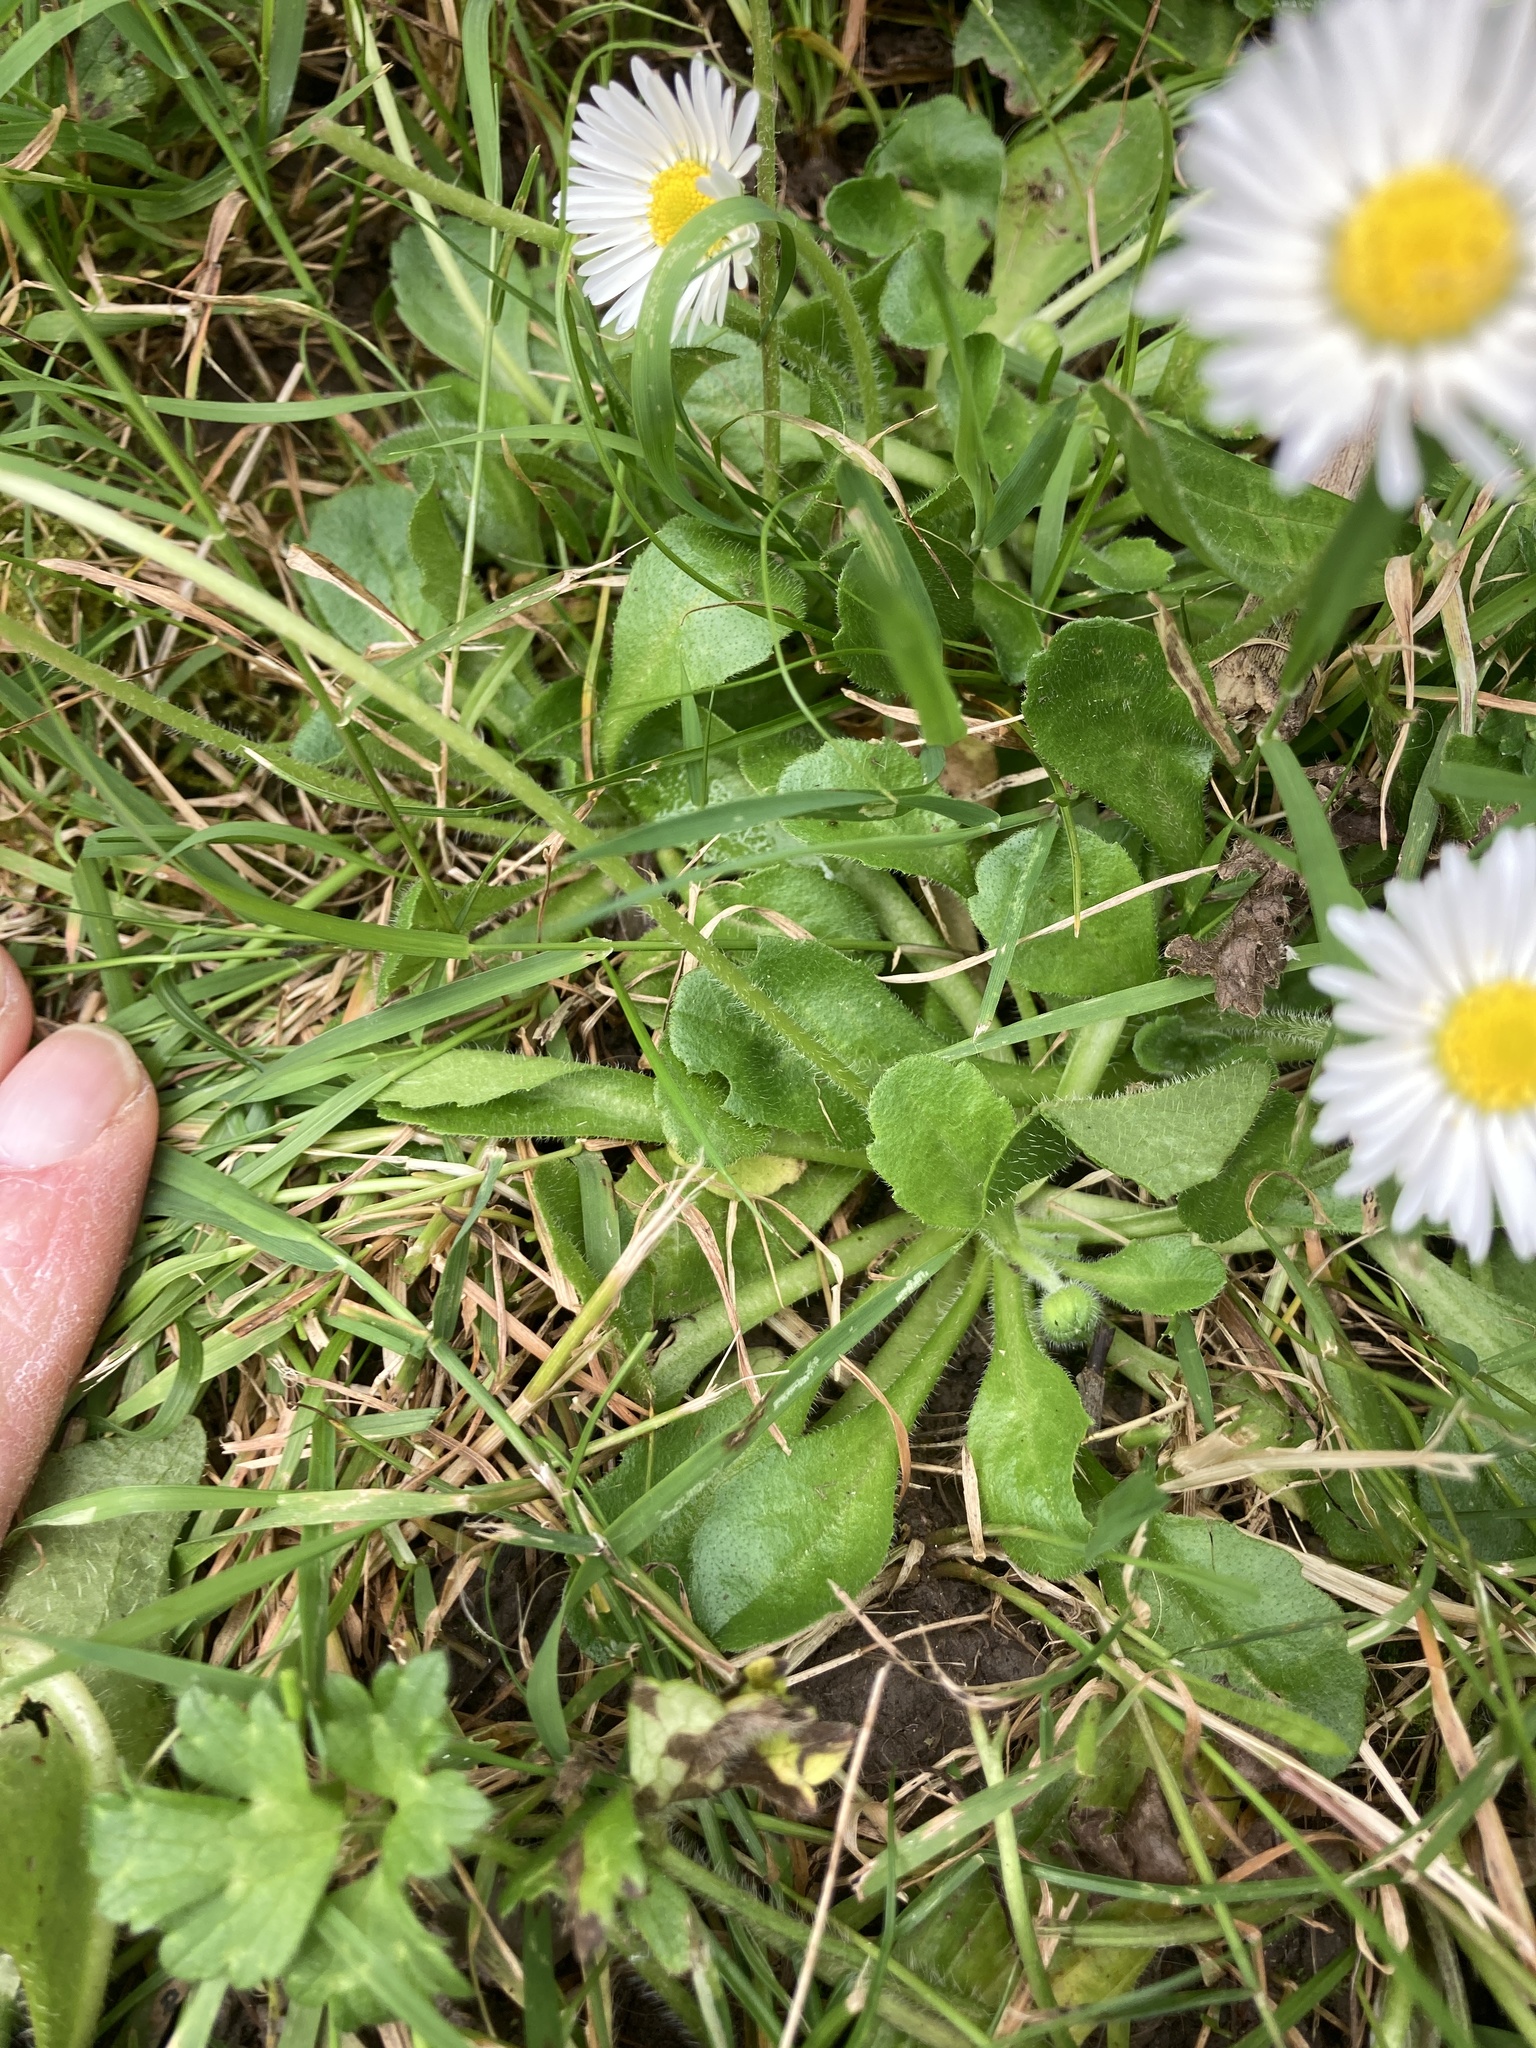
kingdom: Plantae
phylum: Tracheophyta
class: Magnoliopsida
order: Asterales
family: Asteraceae
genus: Bellis
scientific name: Bellis perennis
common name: Lawndaisy
